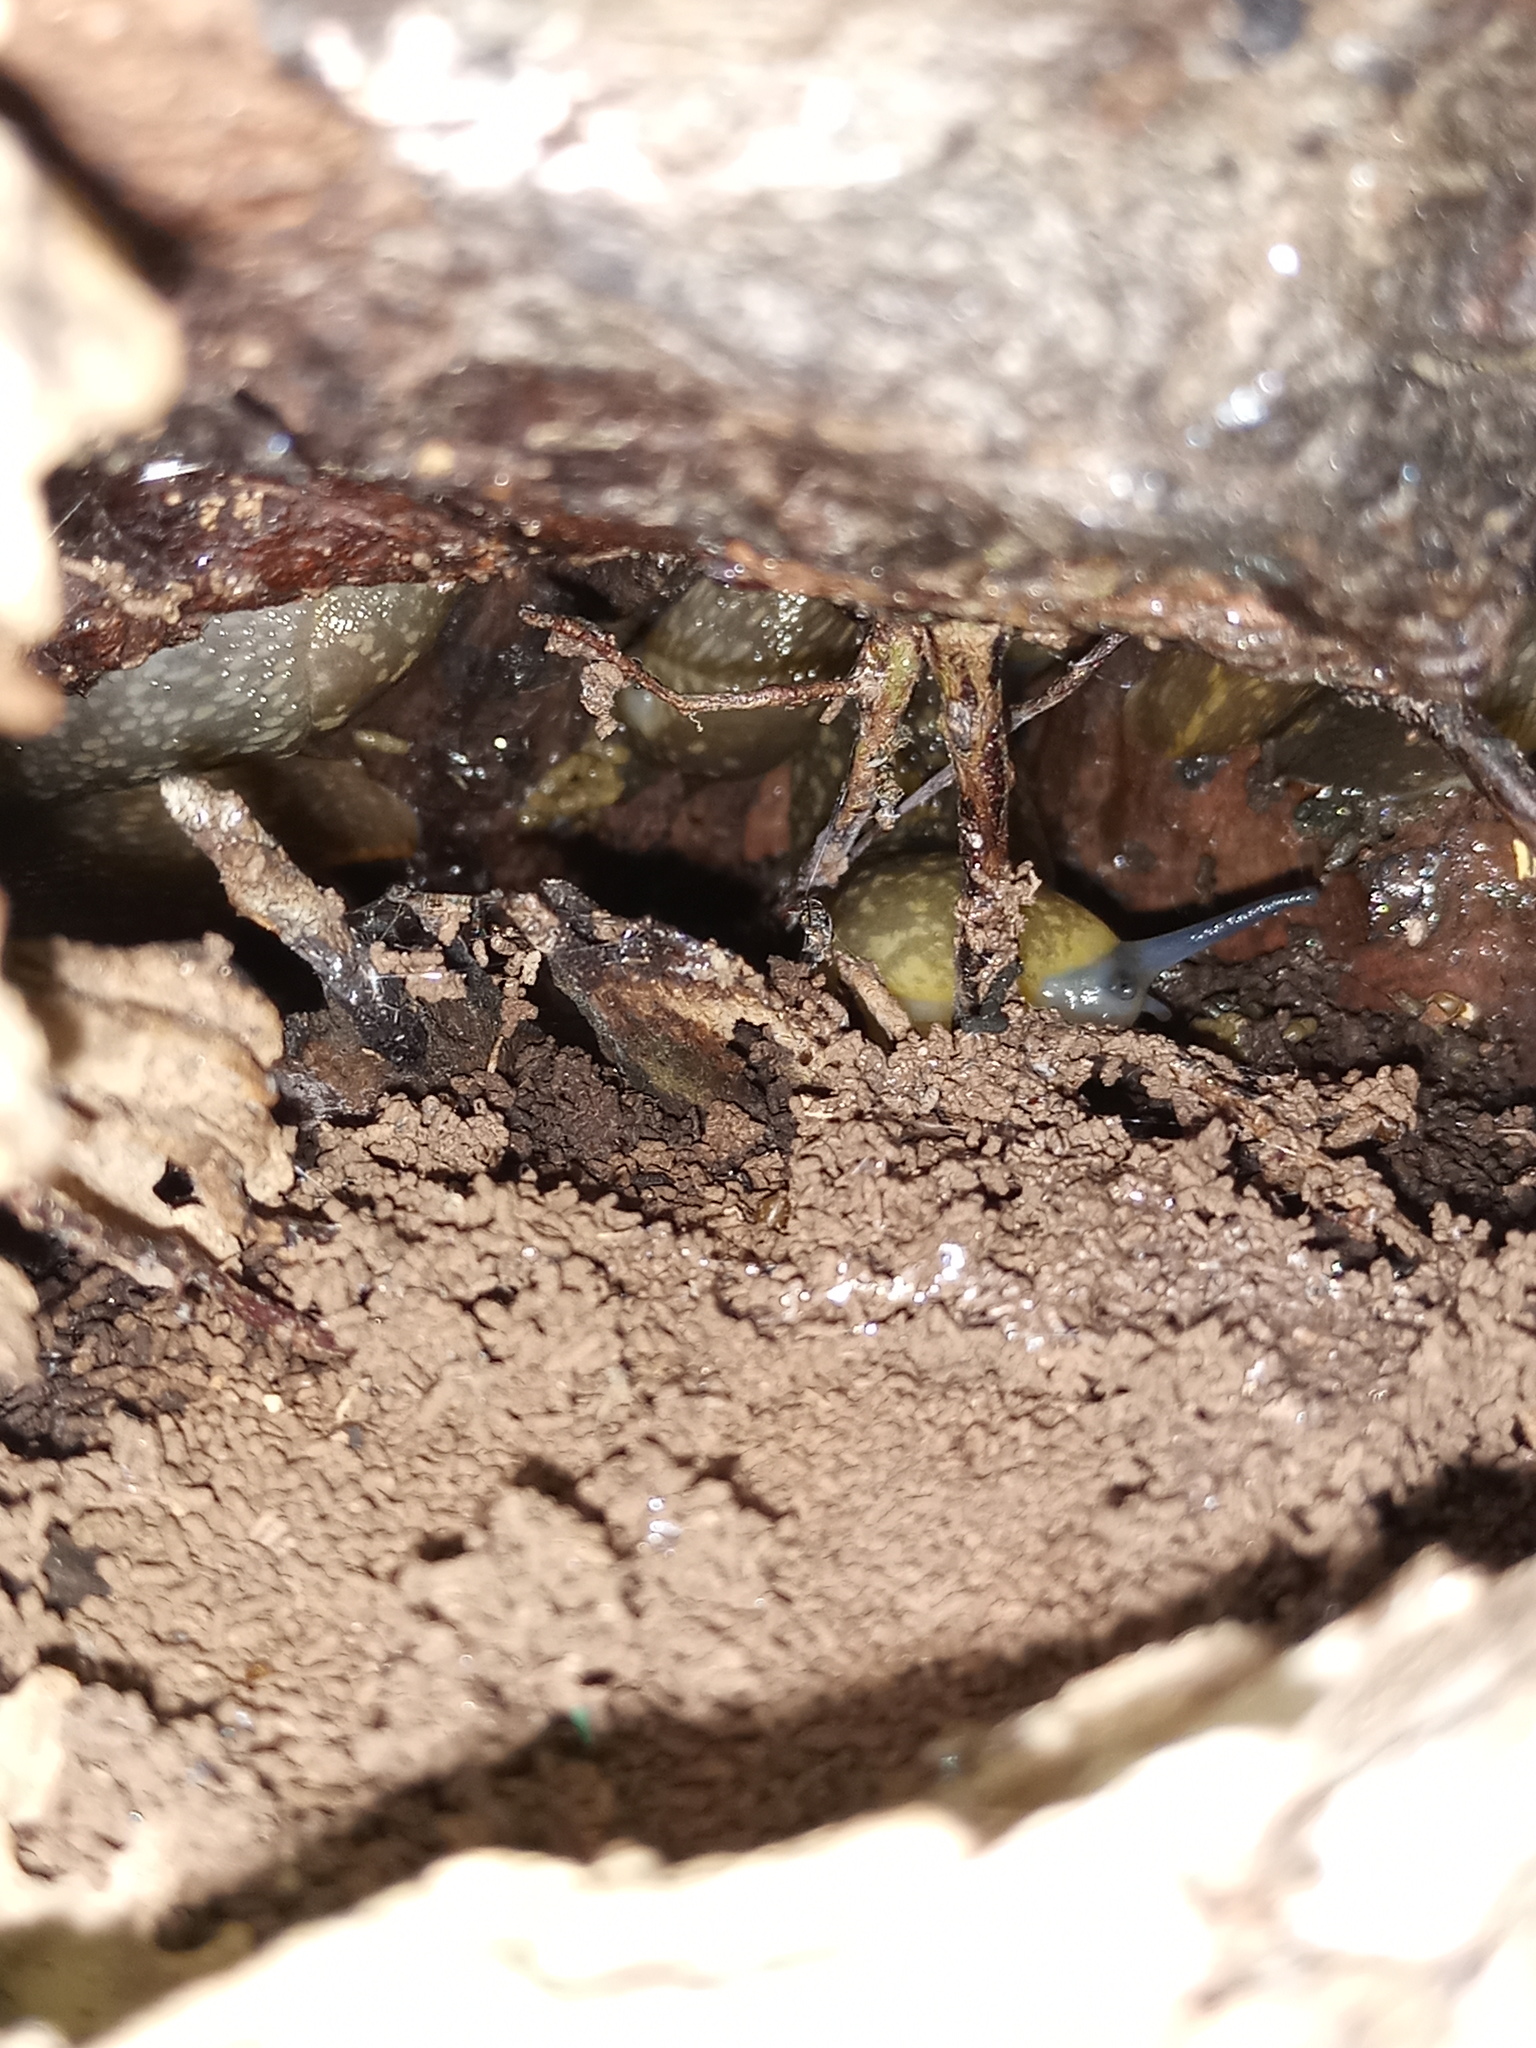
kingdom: Animalia
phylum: Mollusca
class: Gastropoda
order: Stylommatophora
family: Limacidae
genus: Limacus
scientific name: Limacus flavus
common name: Yellow gardenslug
